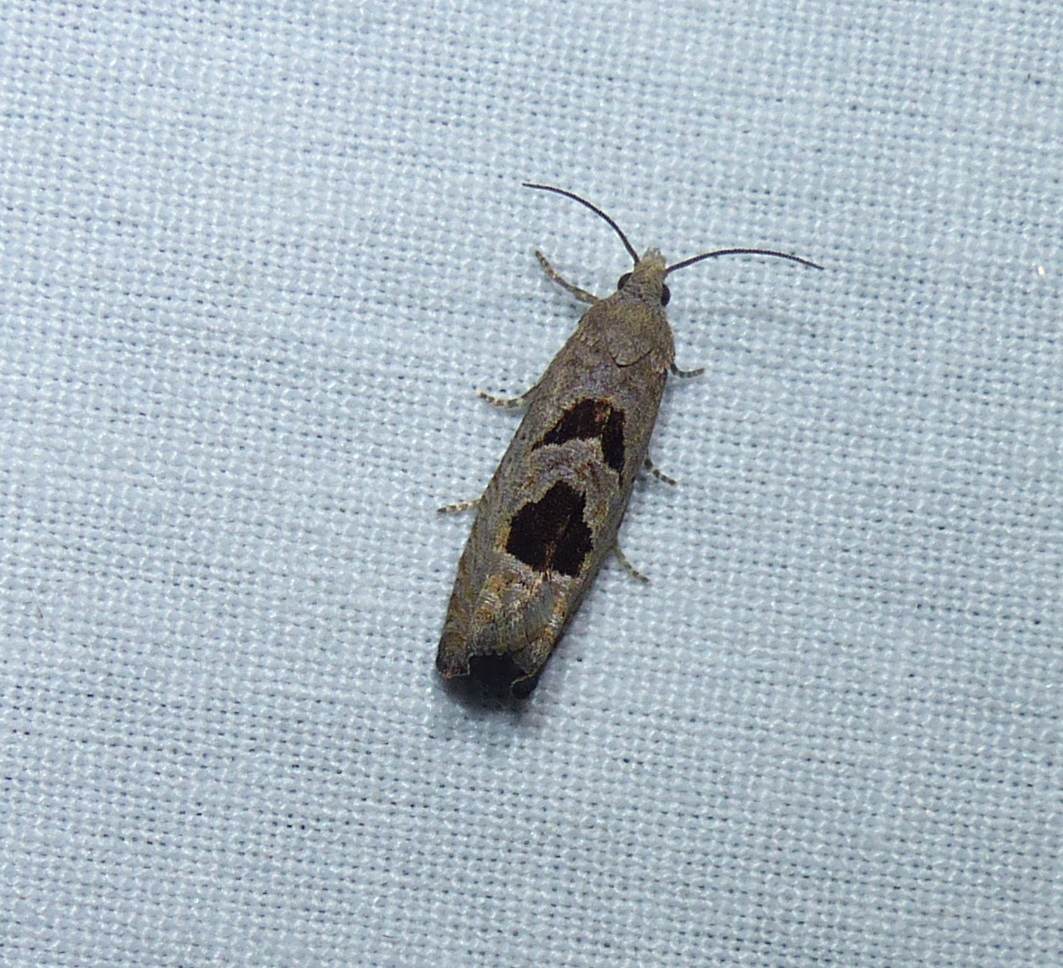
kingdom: Animalia
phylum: Arthropoda
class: Insecta
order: Lepidoptera
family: Tortricidae
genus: Eucosma
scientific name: Eucosma tomonana
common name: Aster-head eucosma moth
